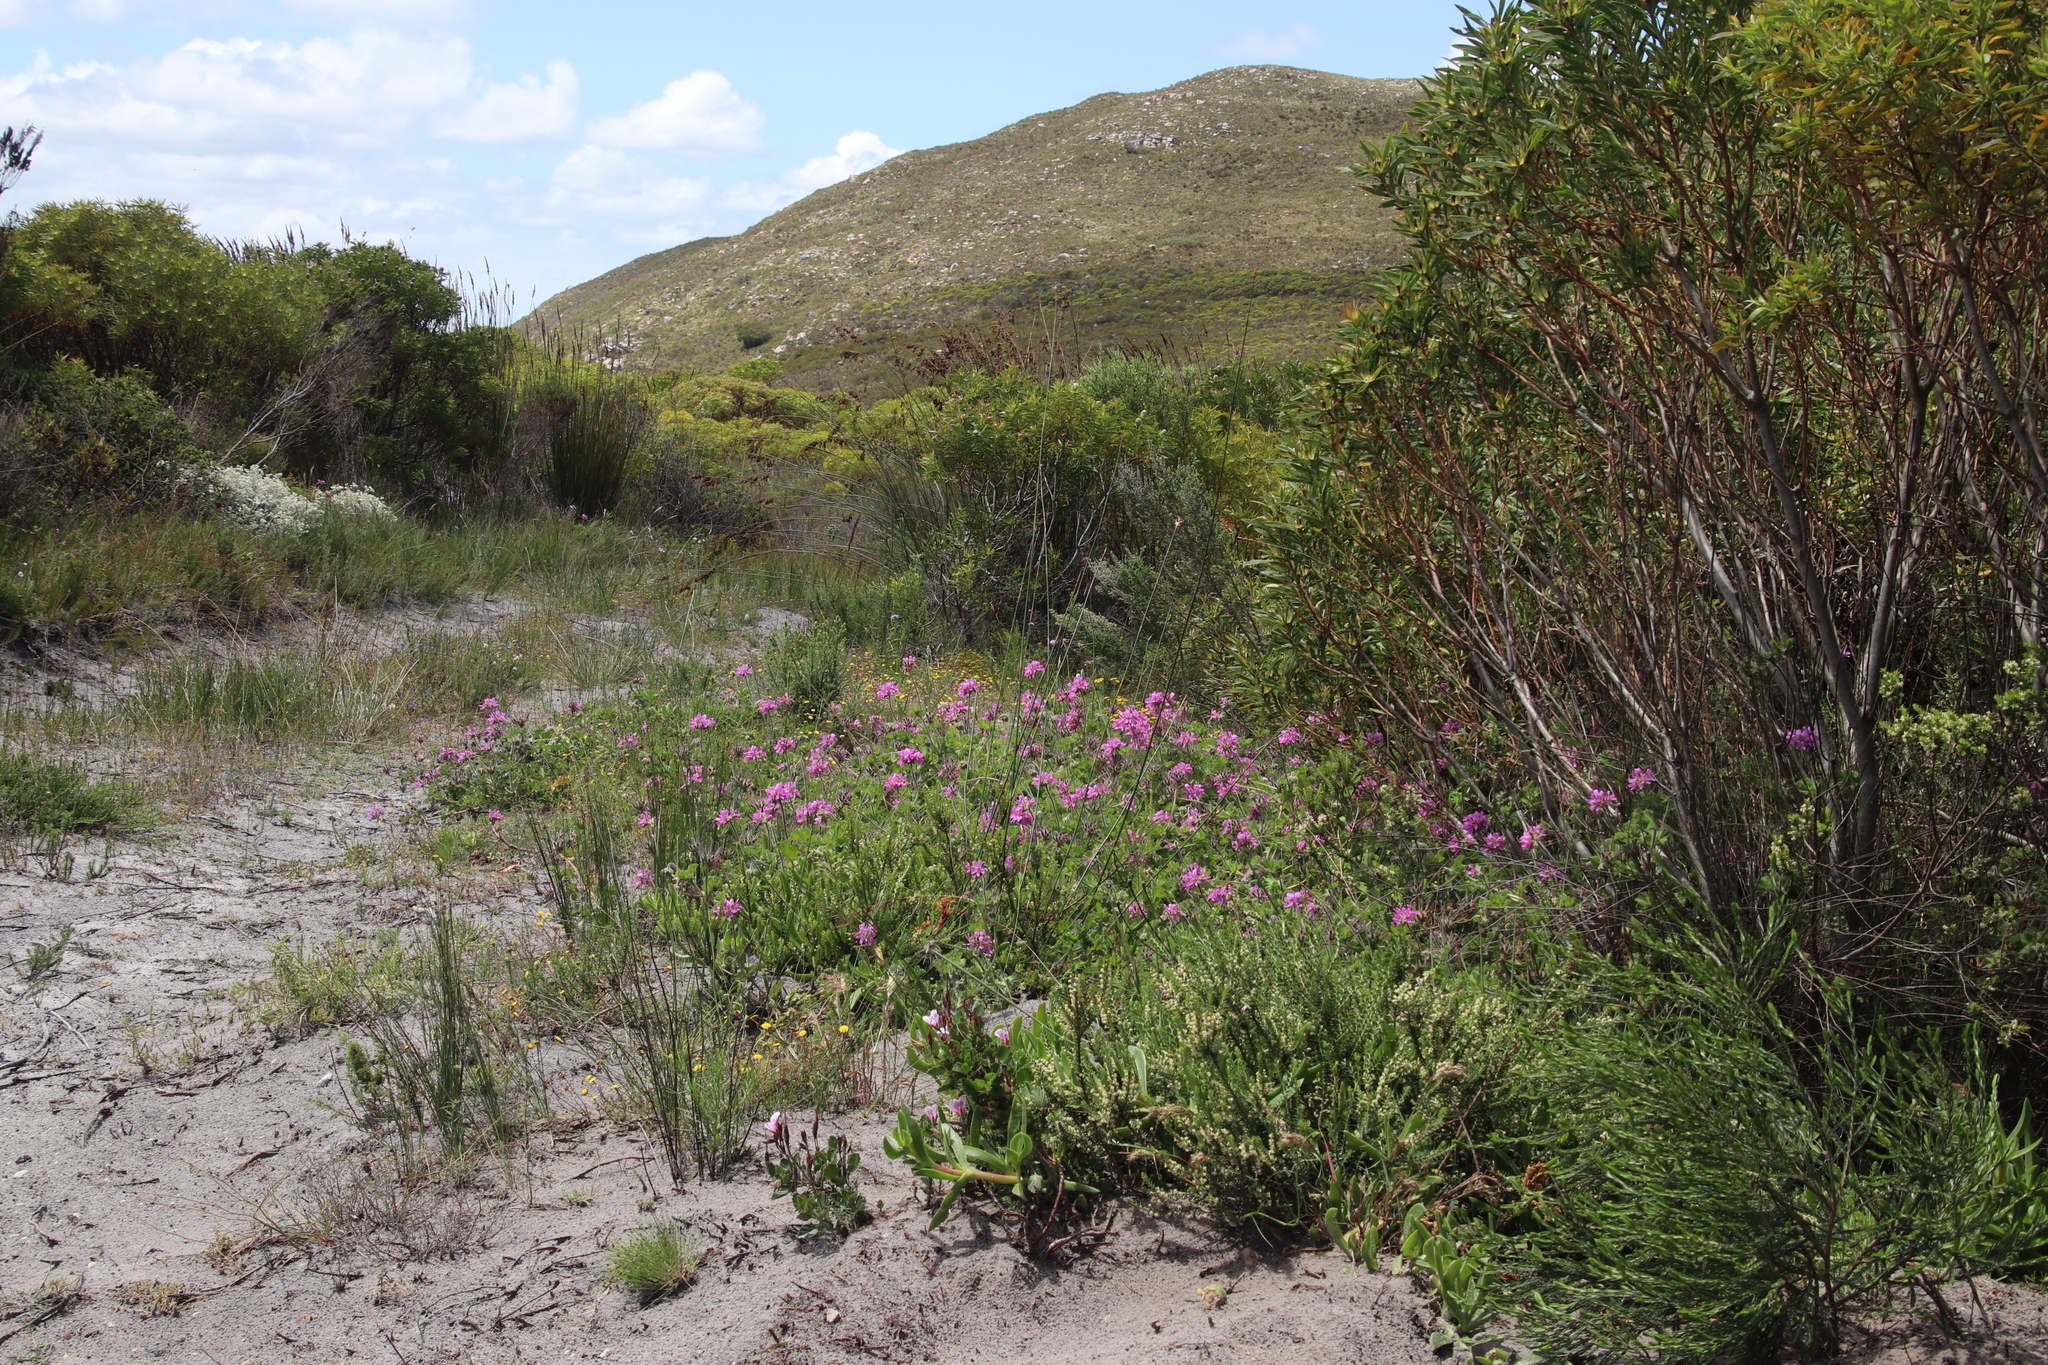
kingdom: Plantae
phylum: Tracheophyta
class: Magnoliopsida
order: Geraniales
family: Geraniaceae
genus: Pelargonium
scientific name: Pelargonium capitatum
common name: Rose scented geranium
